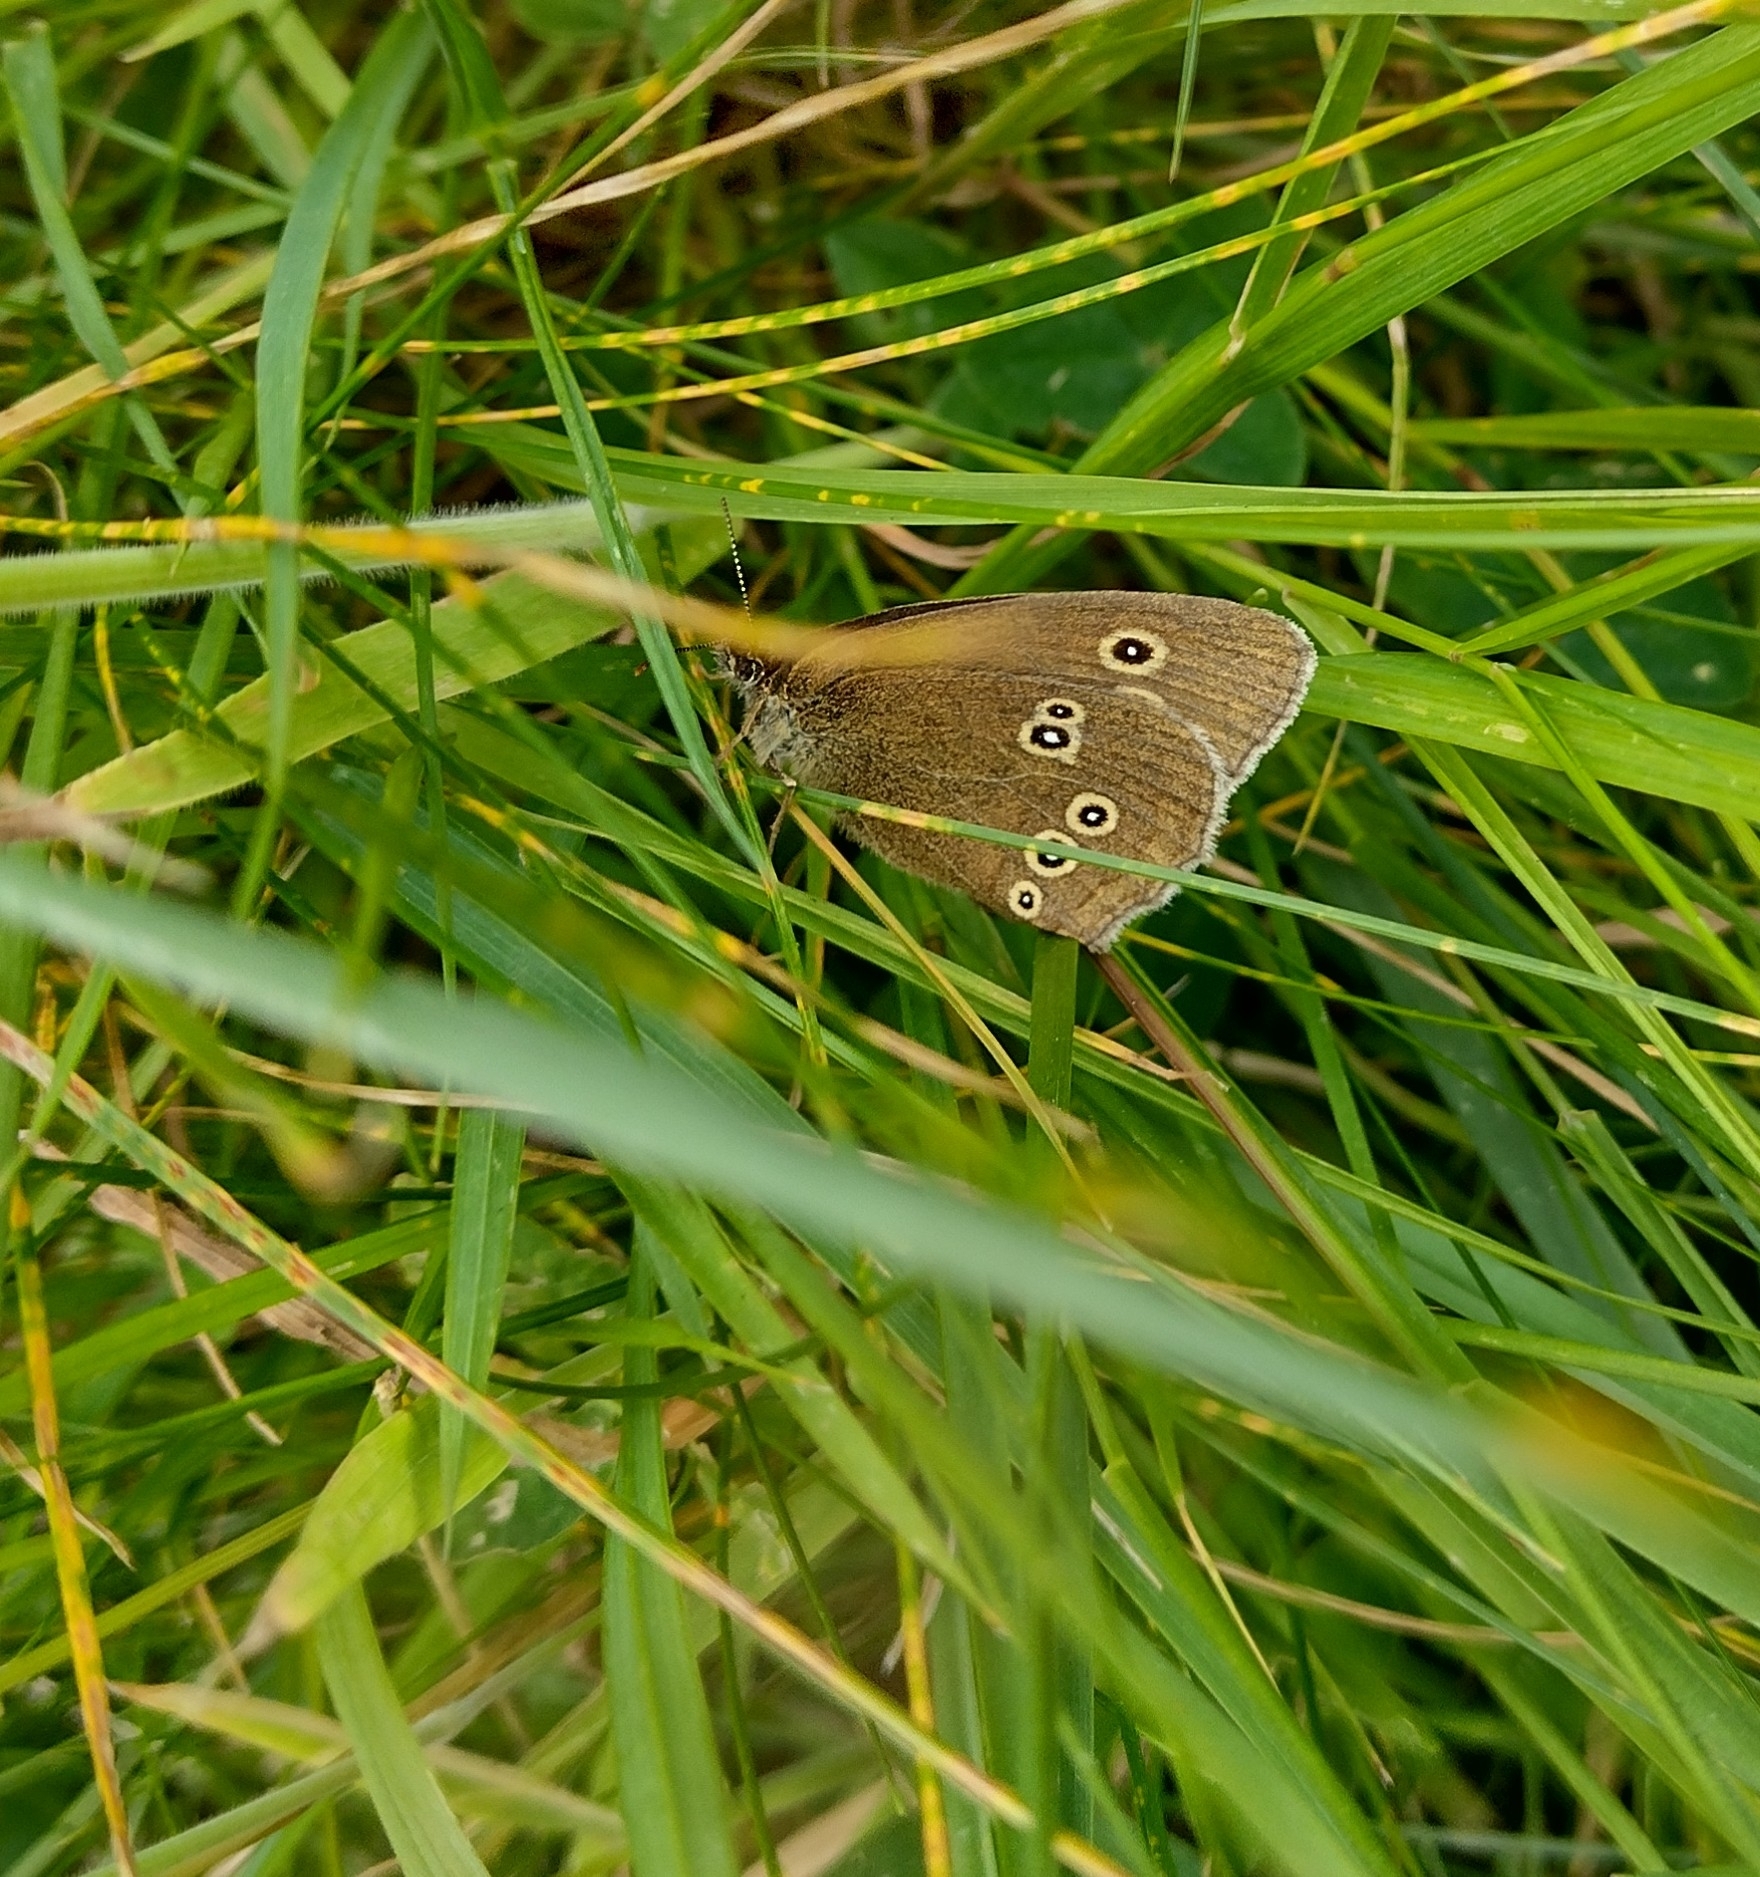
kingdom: Animalia
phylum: Arthropoda
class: Insecta
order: Lepidoptera
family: Nymphalidae
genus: Aphantopus
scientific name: Aphantopus hyperantus
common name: Ringlet
